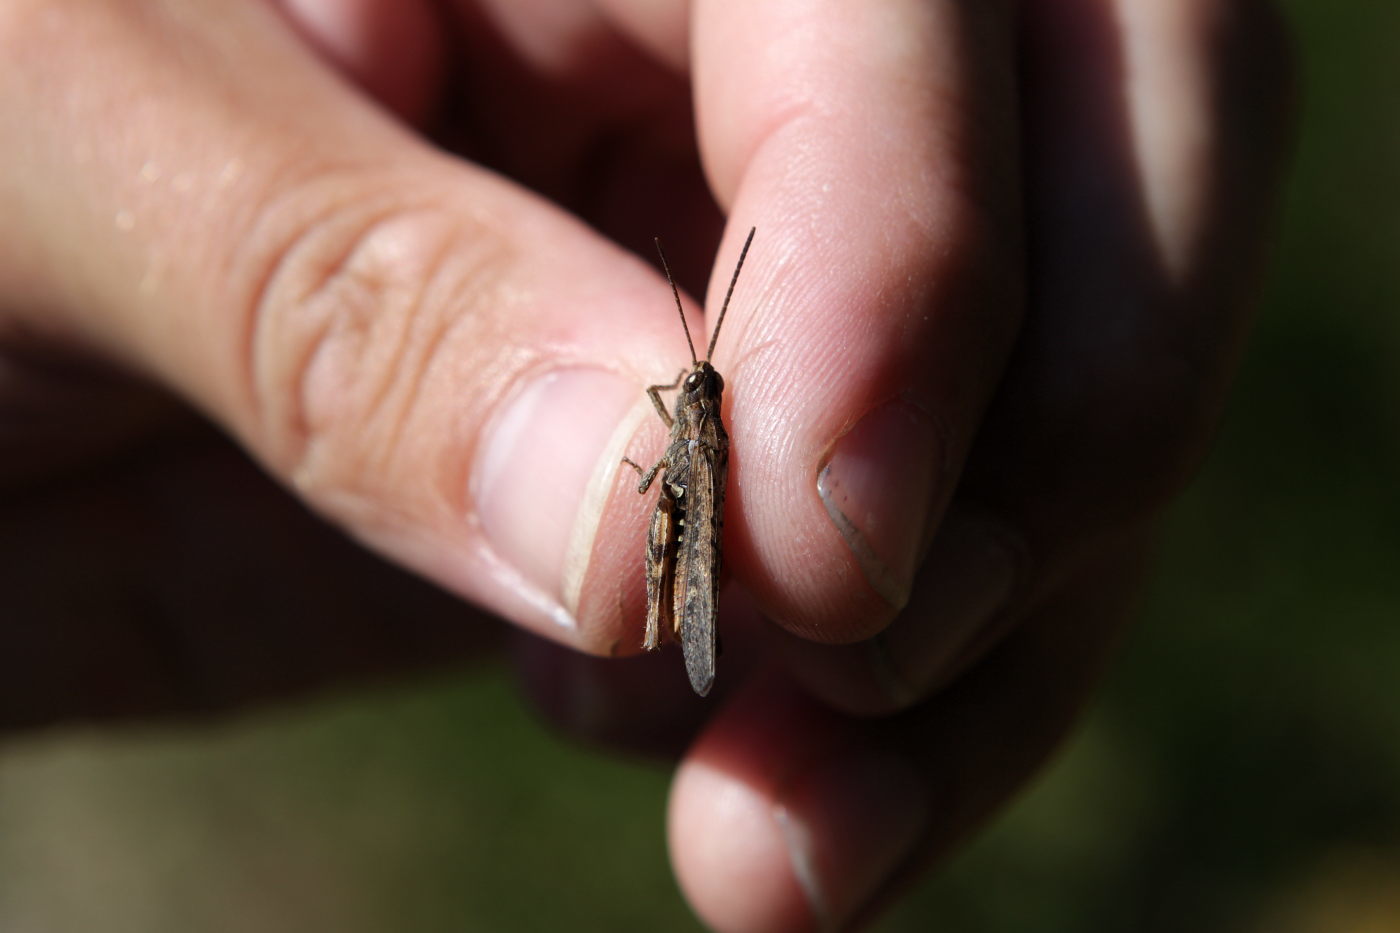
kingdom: Animalia
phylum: Arthropoda
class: Insecta
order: Orthoptera
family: Acrididae
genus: Chorthippus
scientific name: Chorthippus brunneus
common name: Field grasshopper
